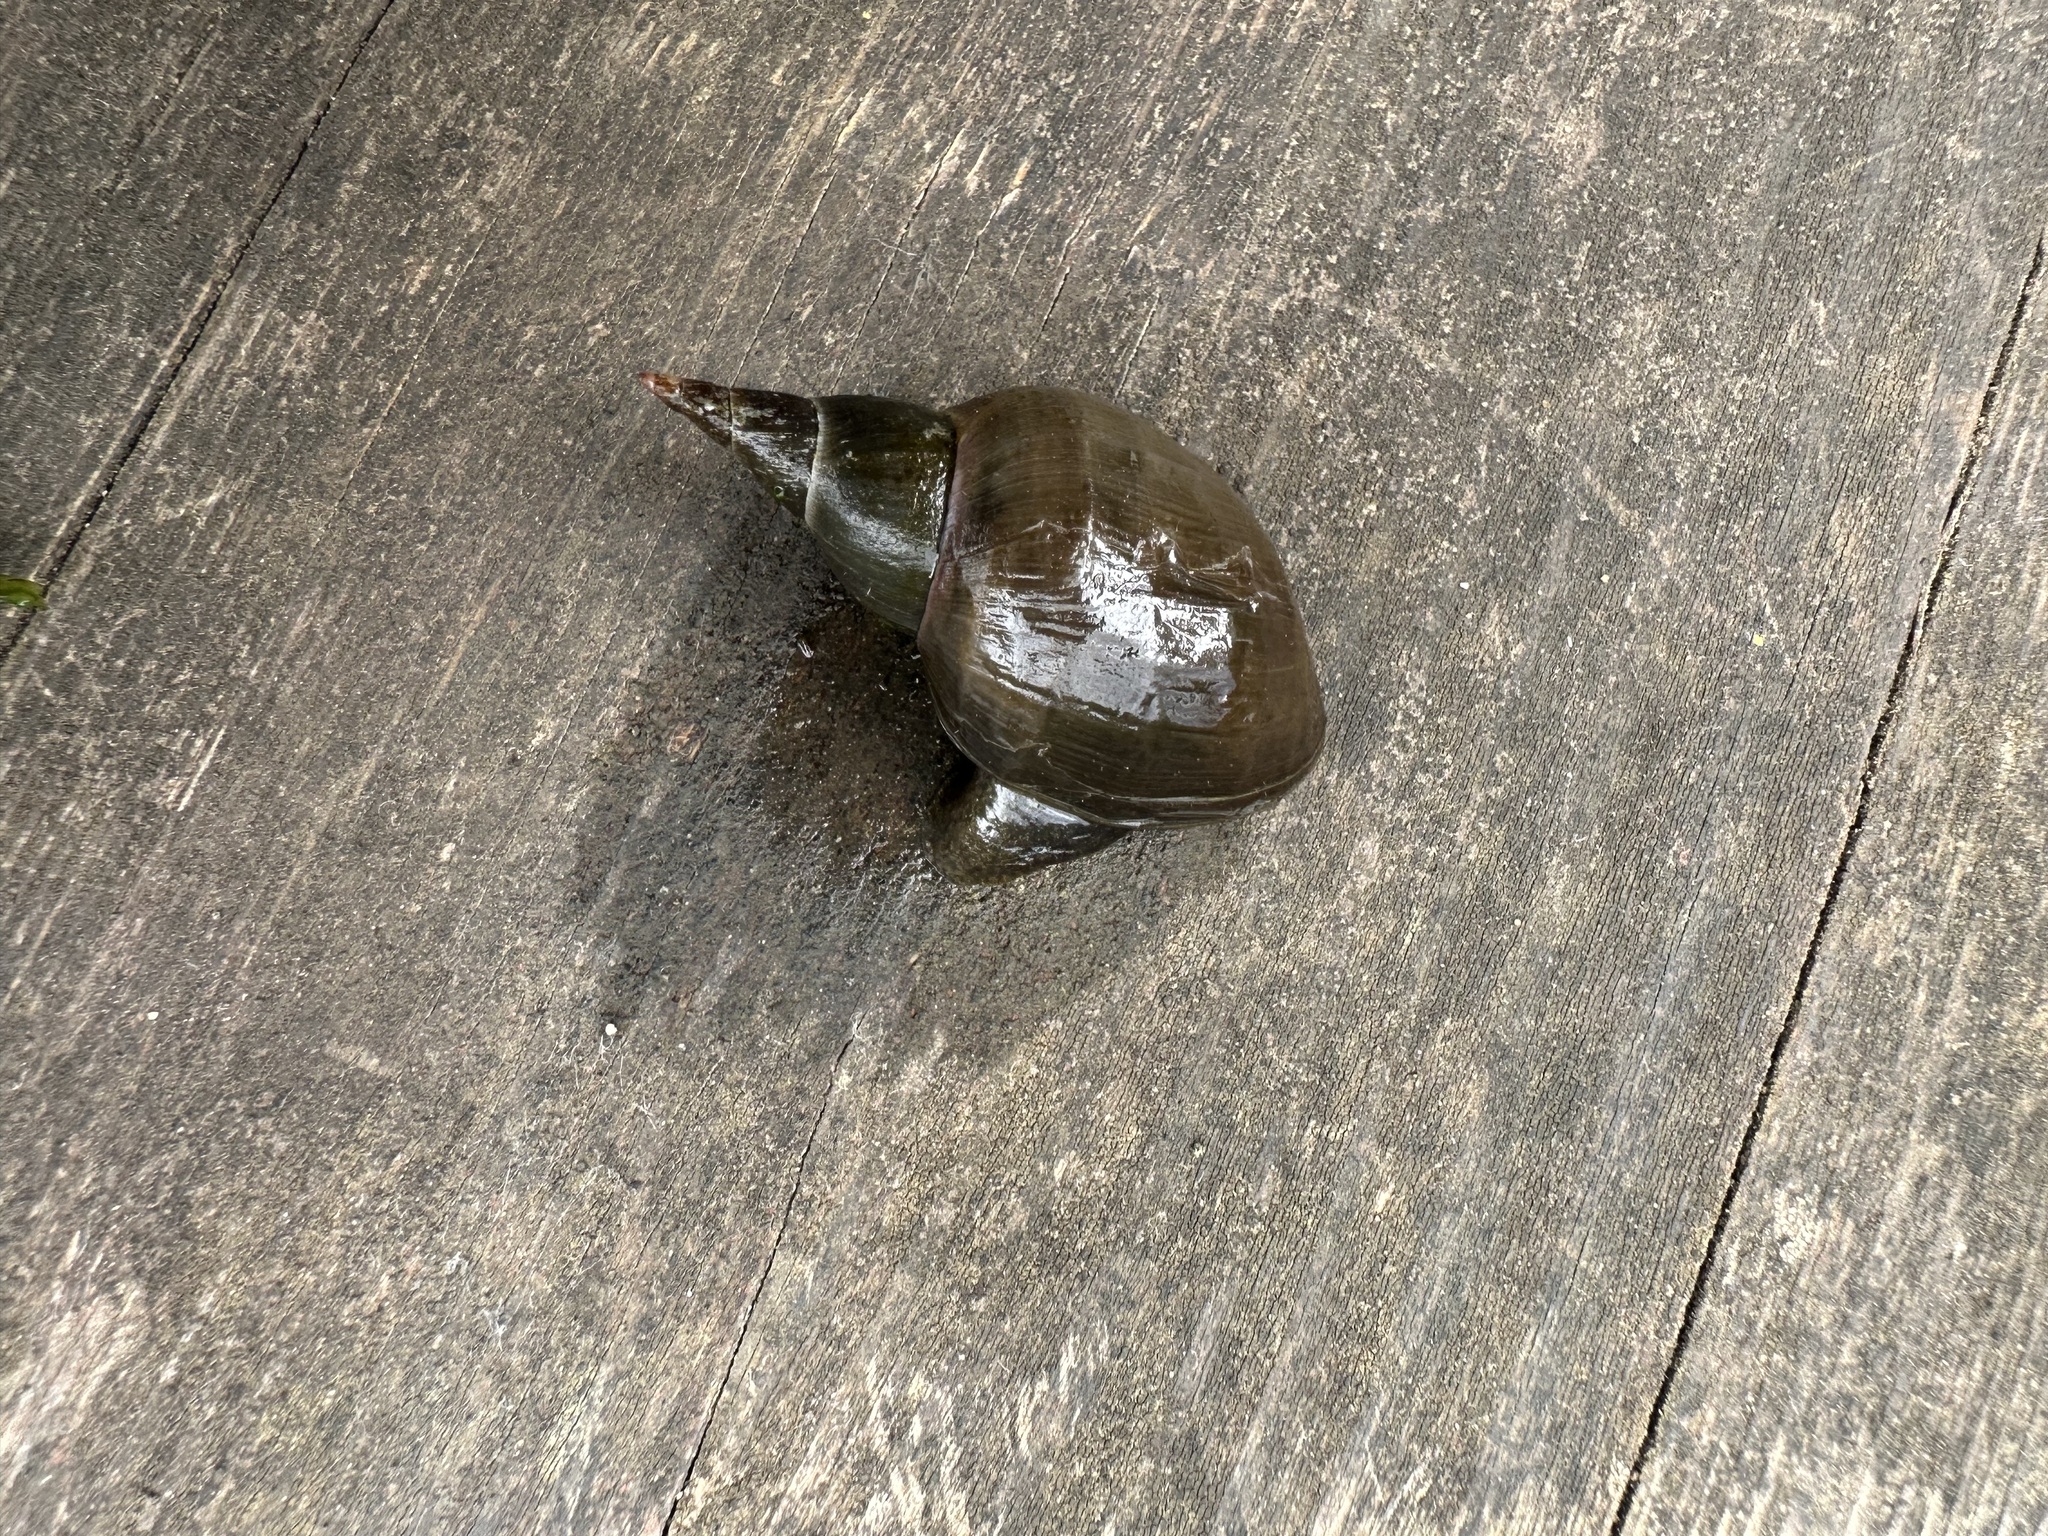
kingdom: Animalia
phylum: Mollusca
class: Gastropoda
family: Lymnaeidae
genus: Lymnaea
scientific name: Lymnaea stagnalis
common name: Great pond snail
